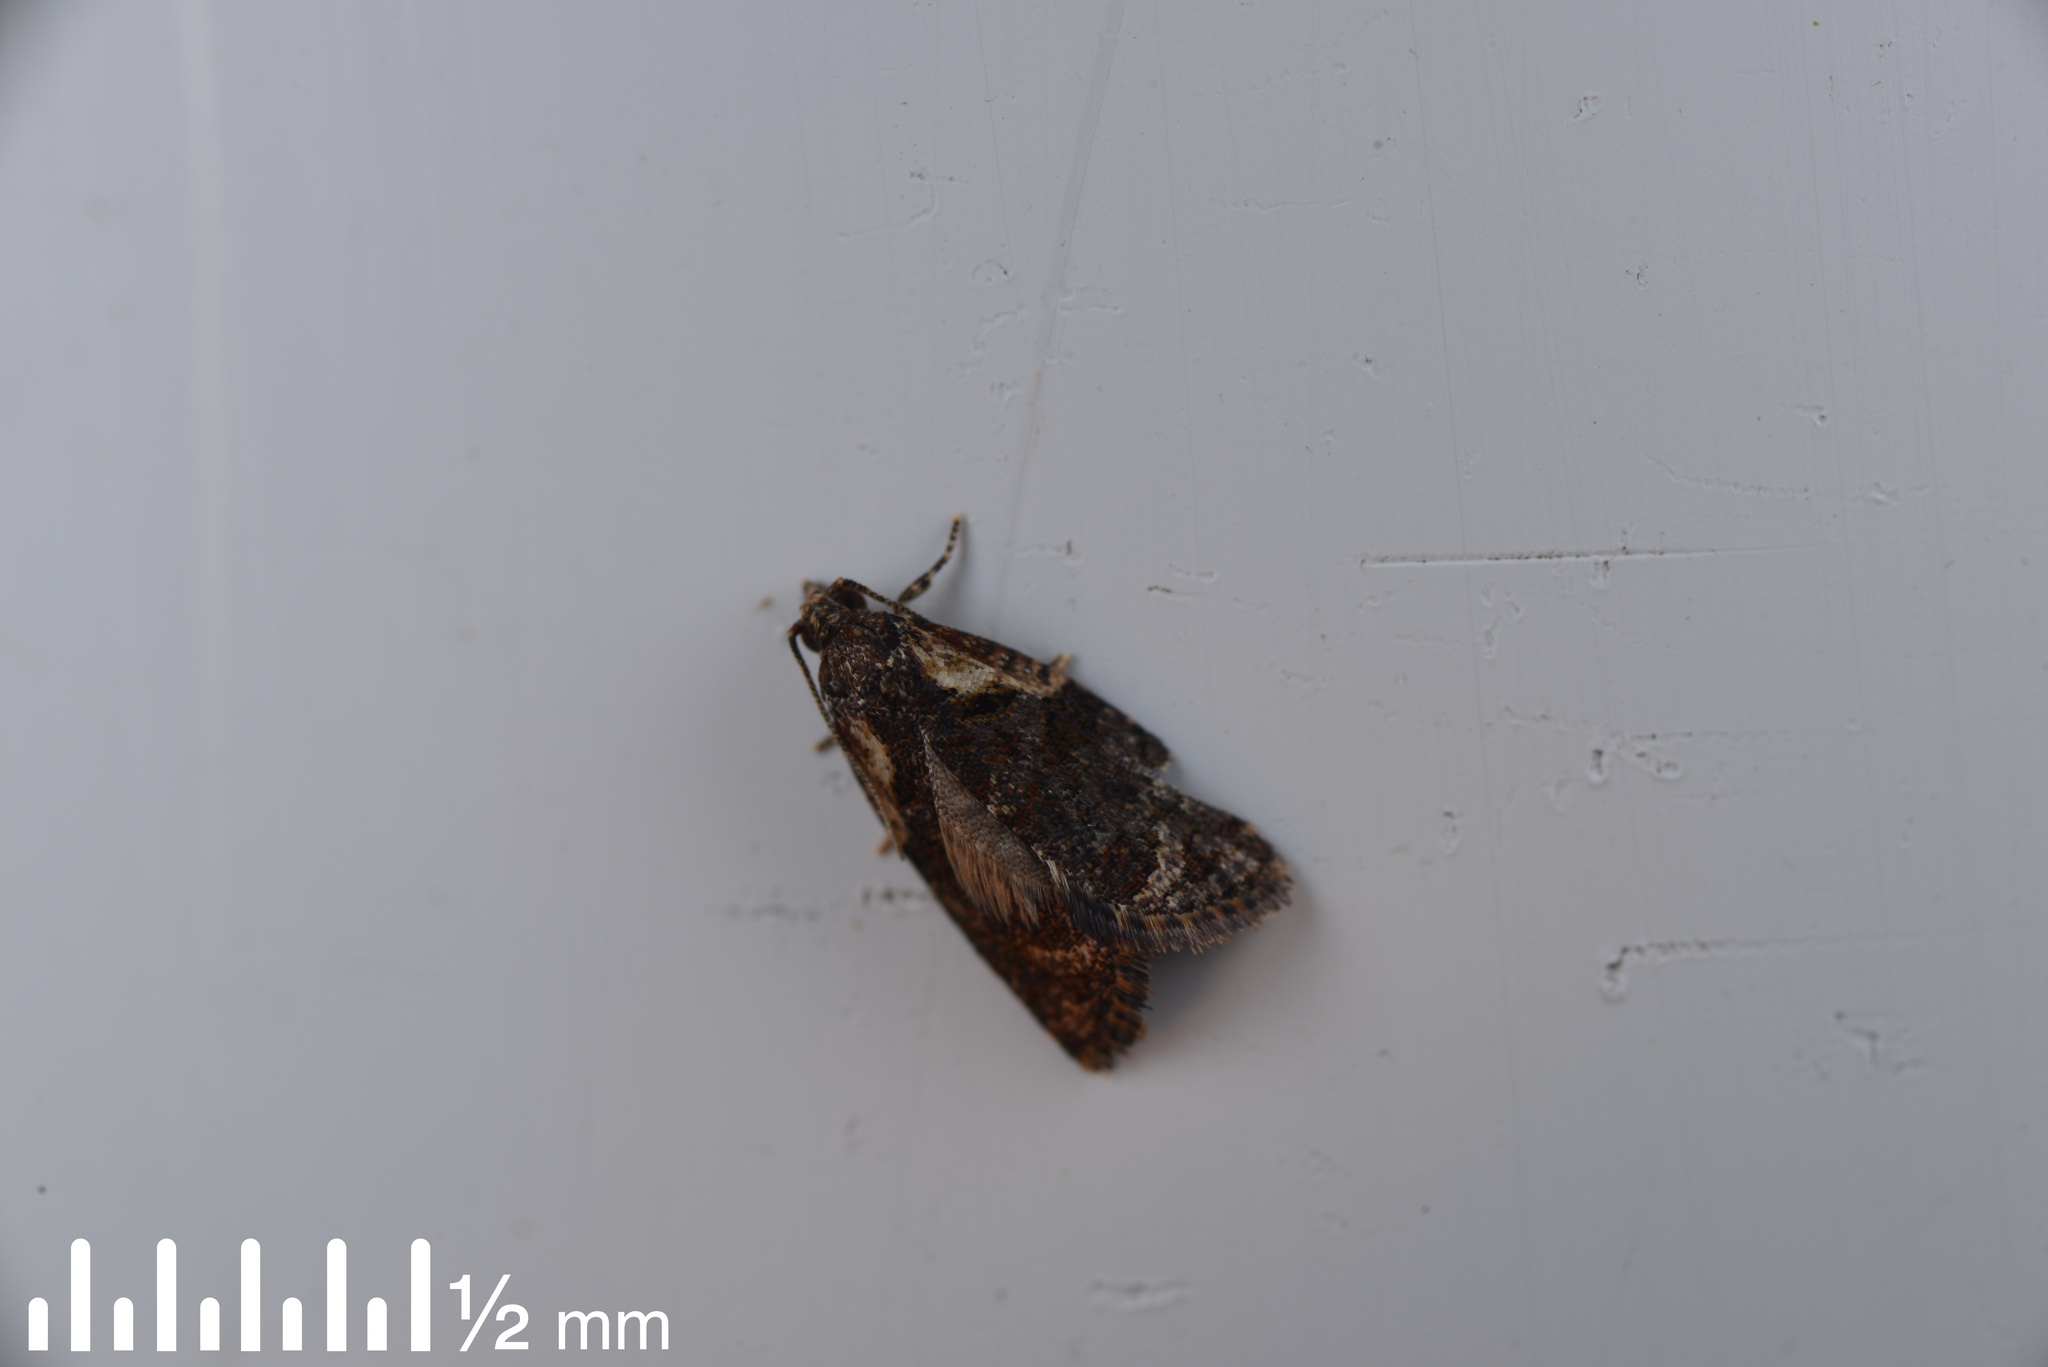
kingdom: Animalia
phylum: Arthropoda
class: Insecta
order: Lepidoptera
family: Tortricidae
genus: Capua
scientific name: Capua intractana
